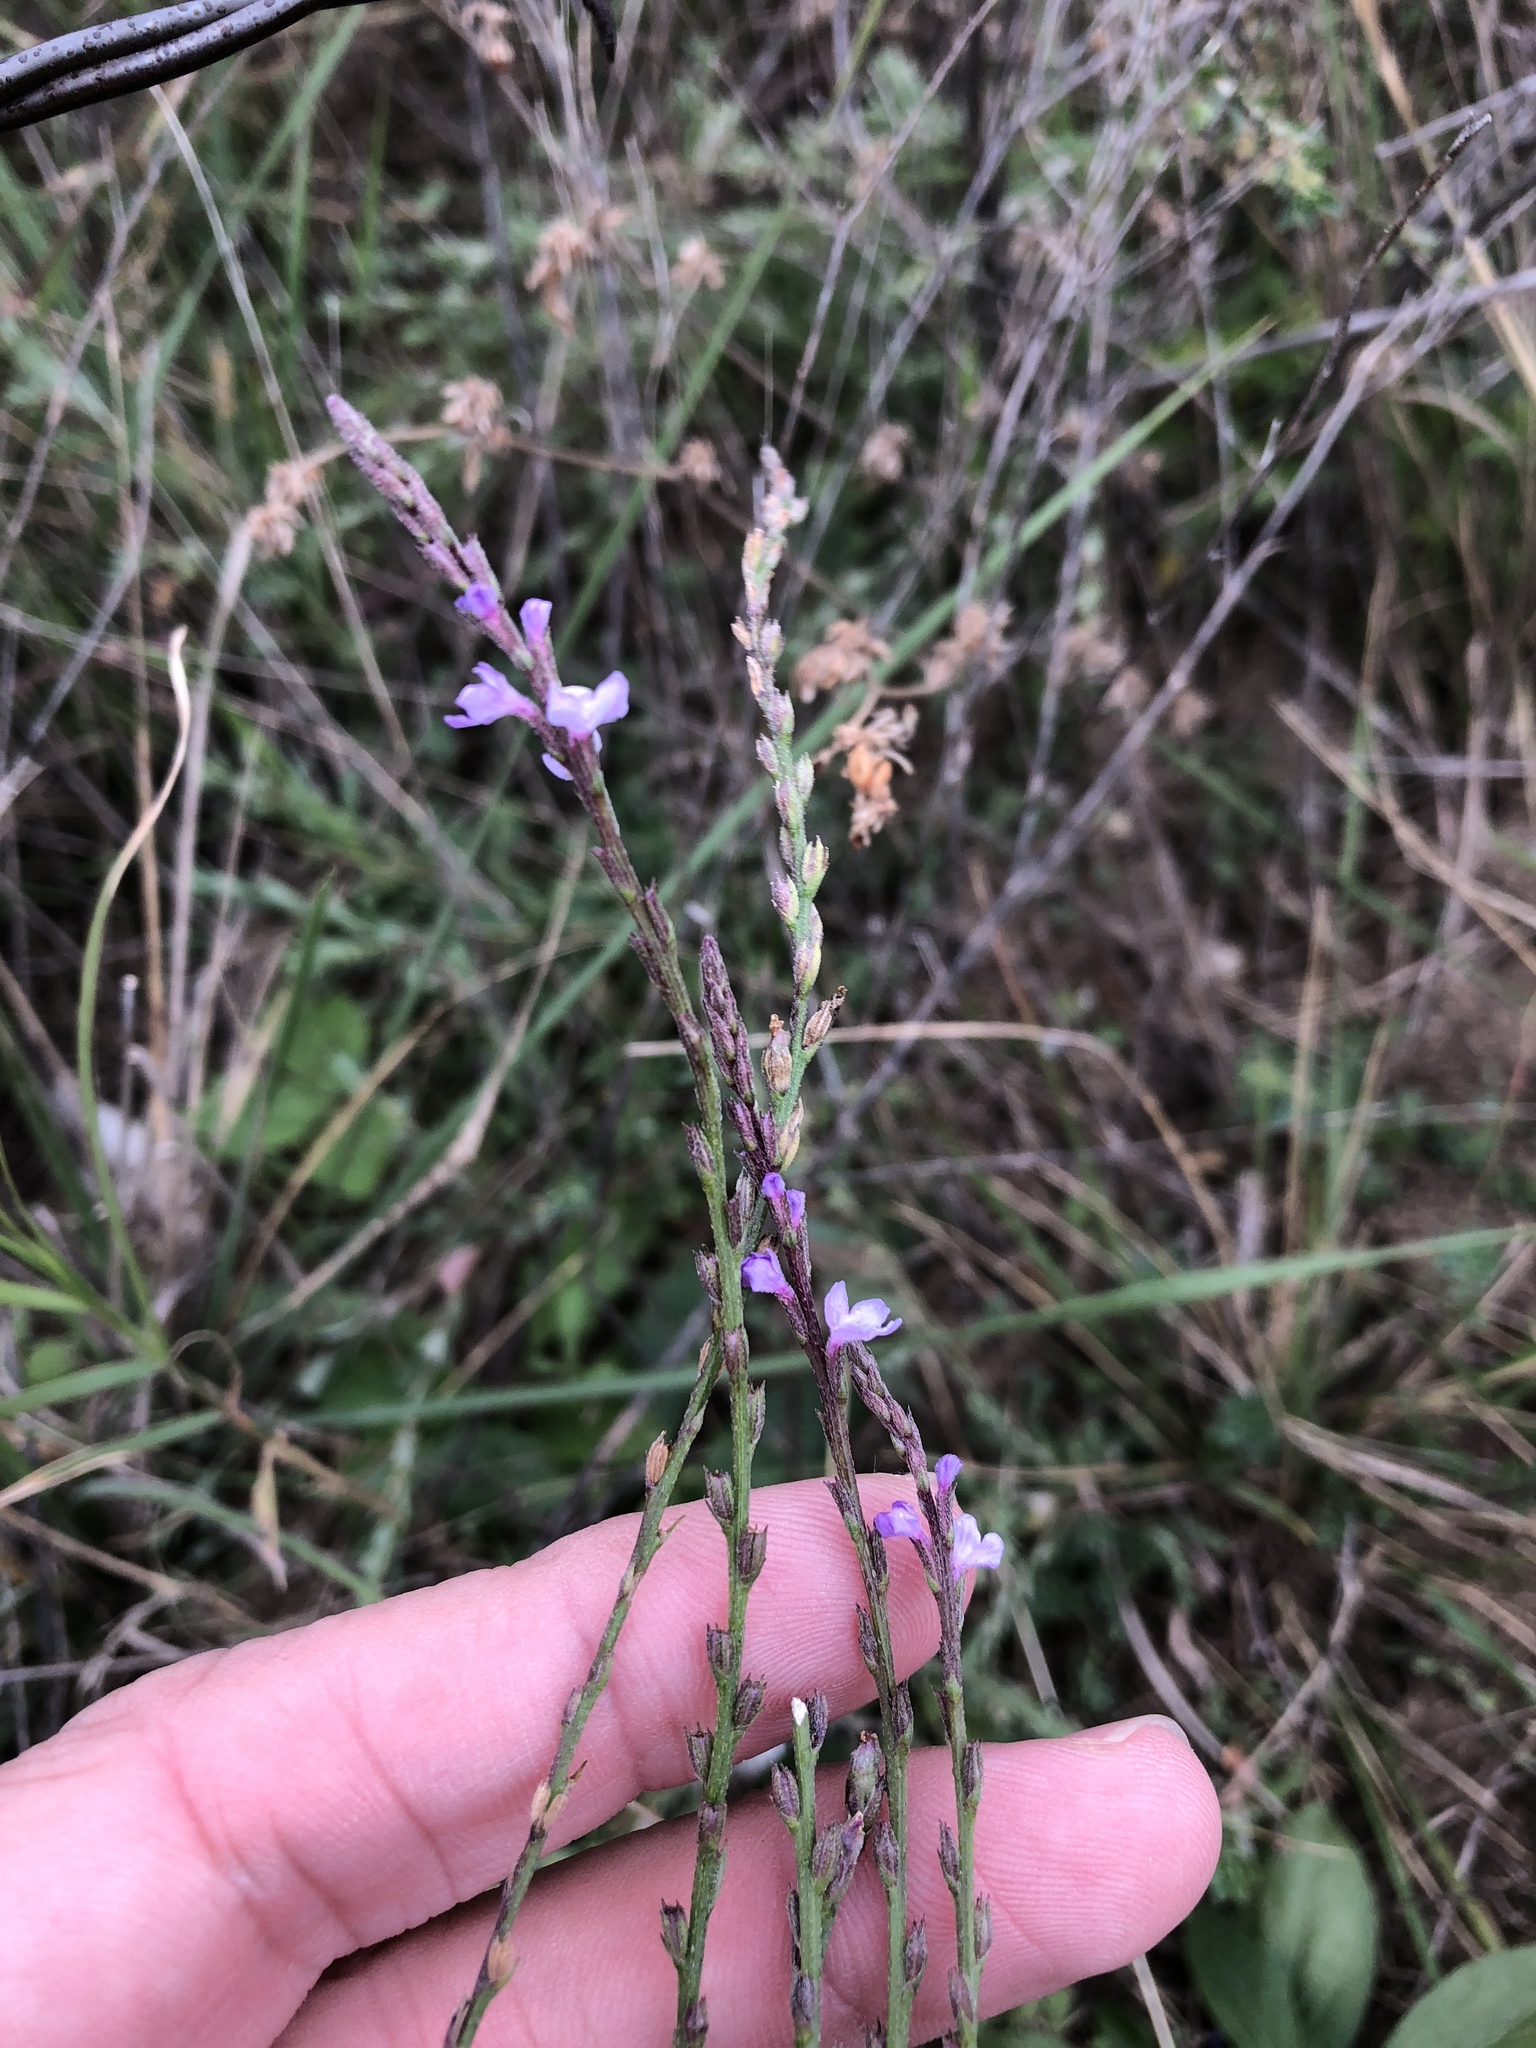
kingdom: Plantae
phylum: Tracheophyta
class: Magnoliopsida
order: Lamiales
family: Verbenaceae
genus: Verbena
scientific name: Verbena halei
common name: Texas vervain
